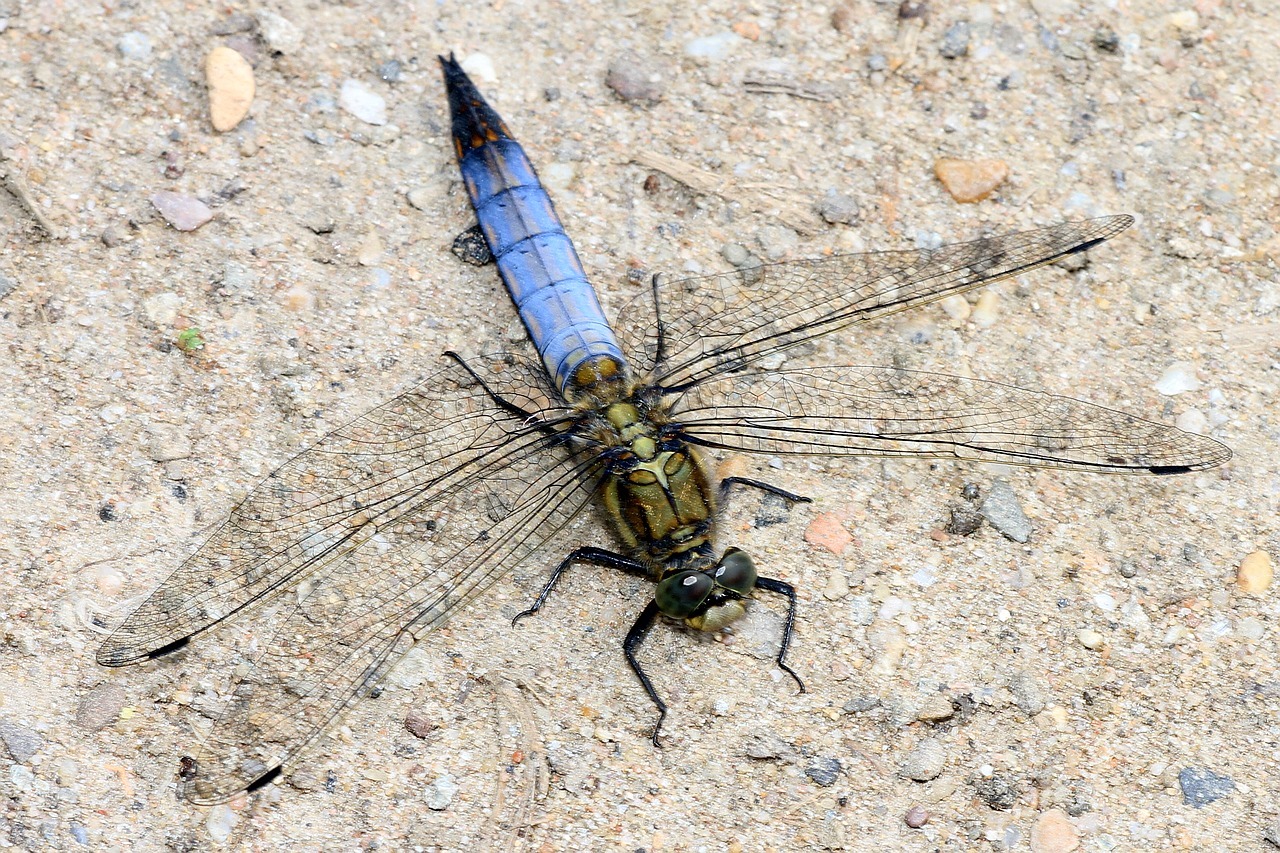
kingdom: Animalia
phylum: Arthropoda
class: Insecta
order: Odonata
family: Libellulidae
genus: Orthetrum
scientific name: Orthetrum cancellatum
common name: Black-tailed skimmer
